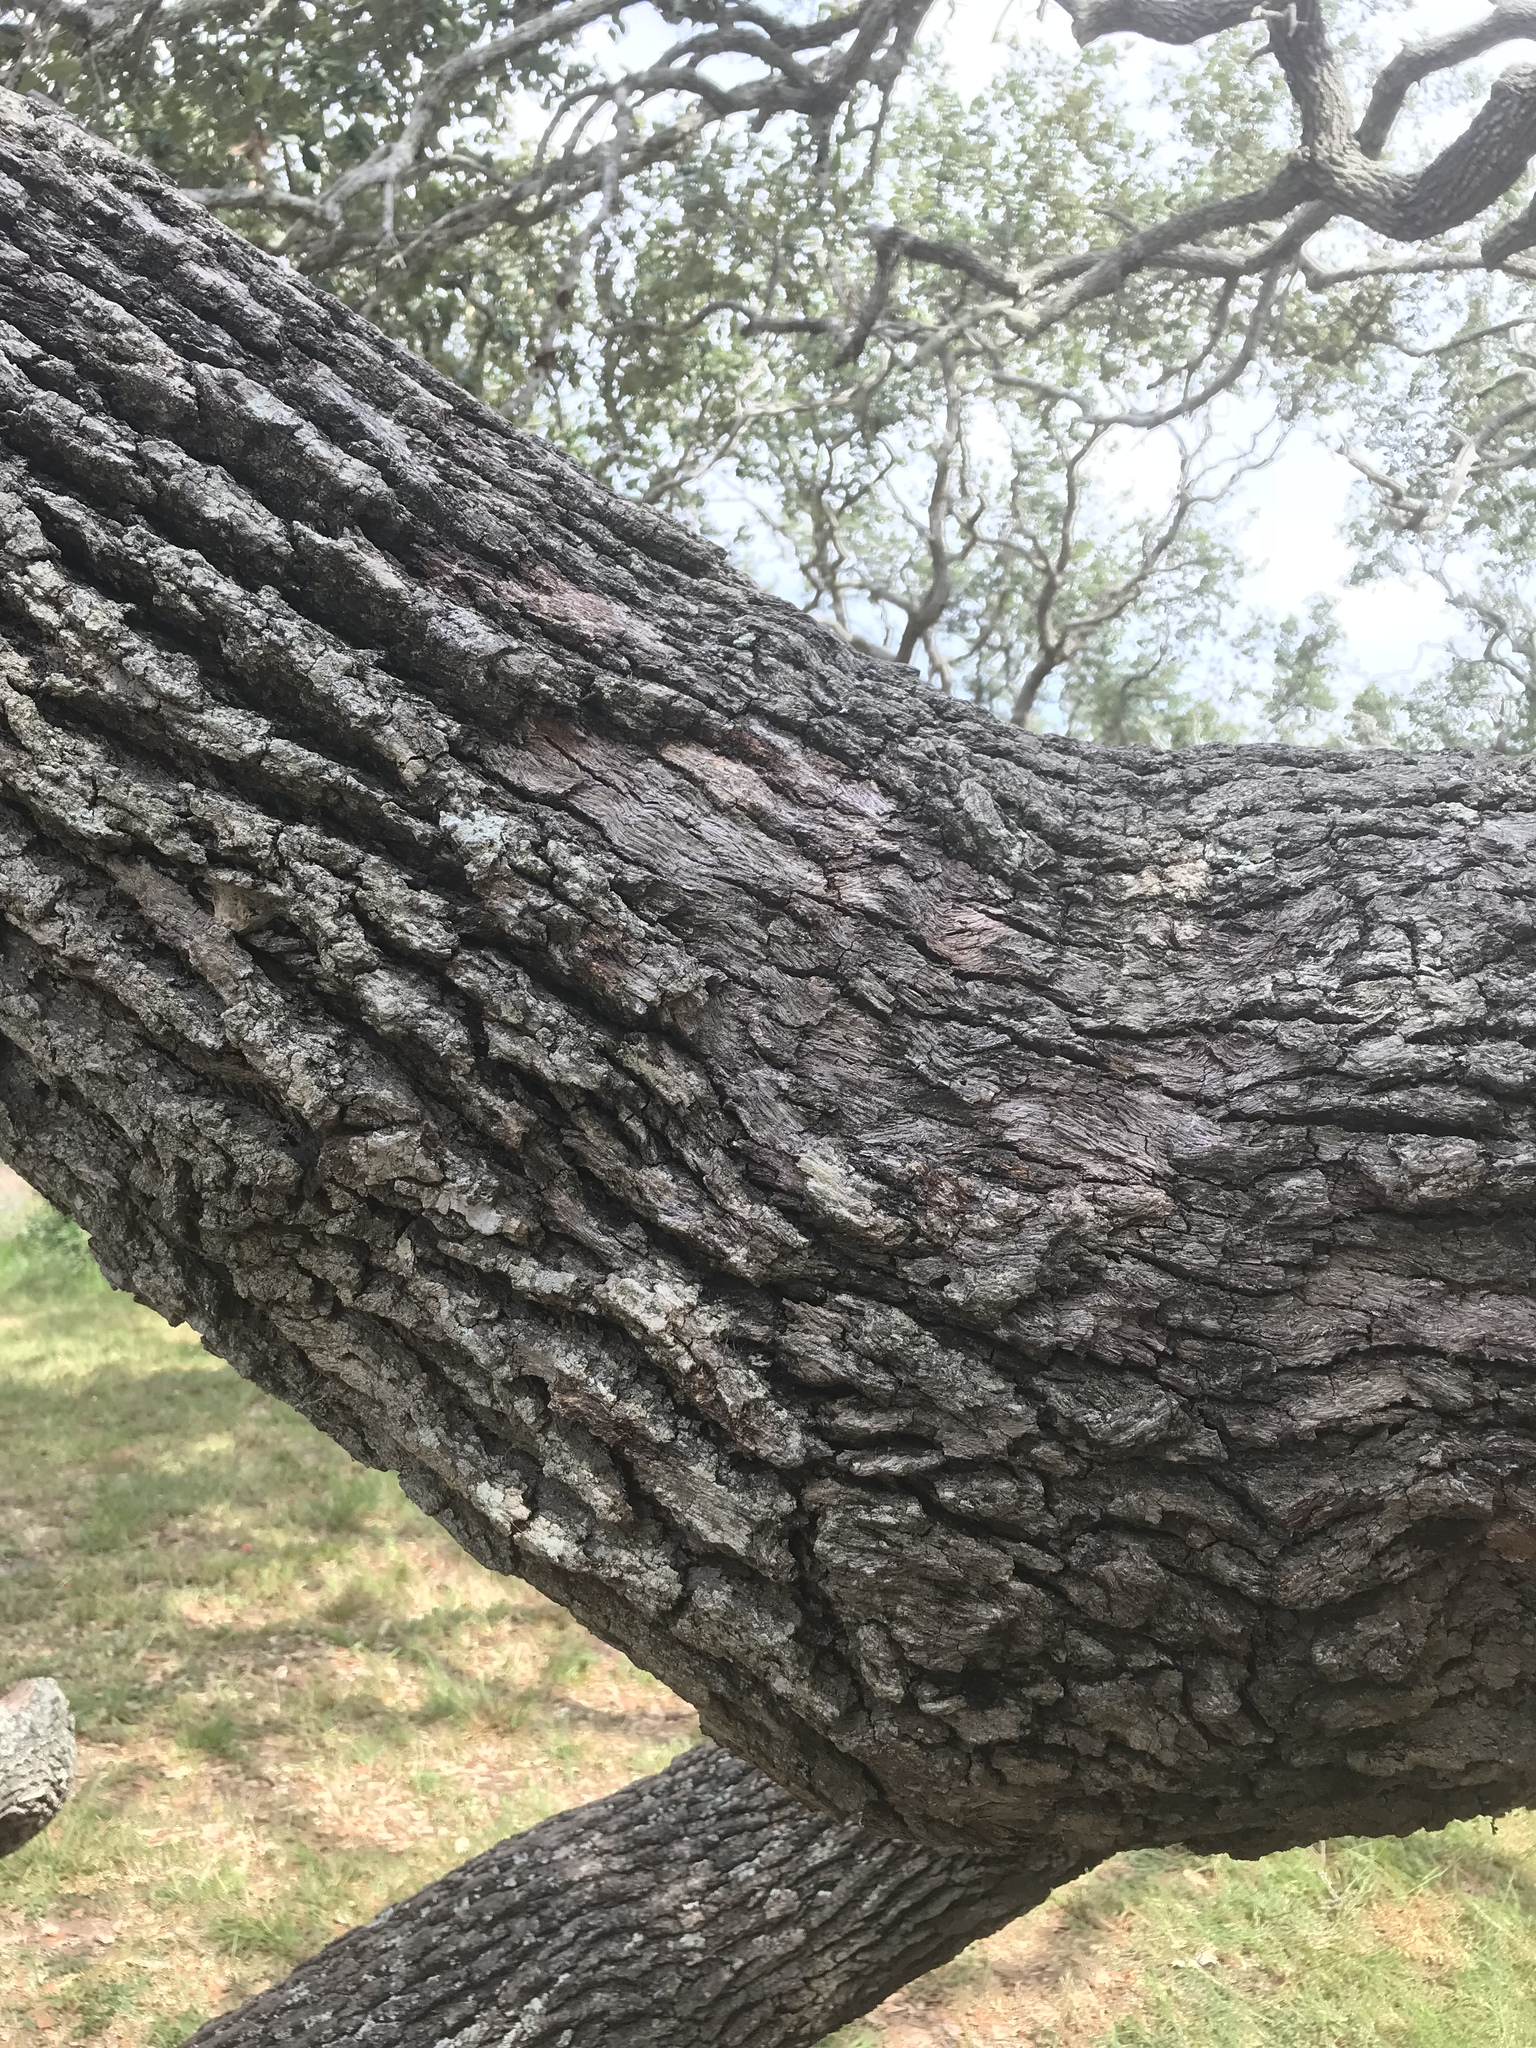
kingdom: Plantae
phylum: Tracheophyta
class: Magnoliopsida
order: Fagales
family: Fagaceae
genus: Quercus
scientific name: Quercus virginiana
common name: Southern live oak
